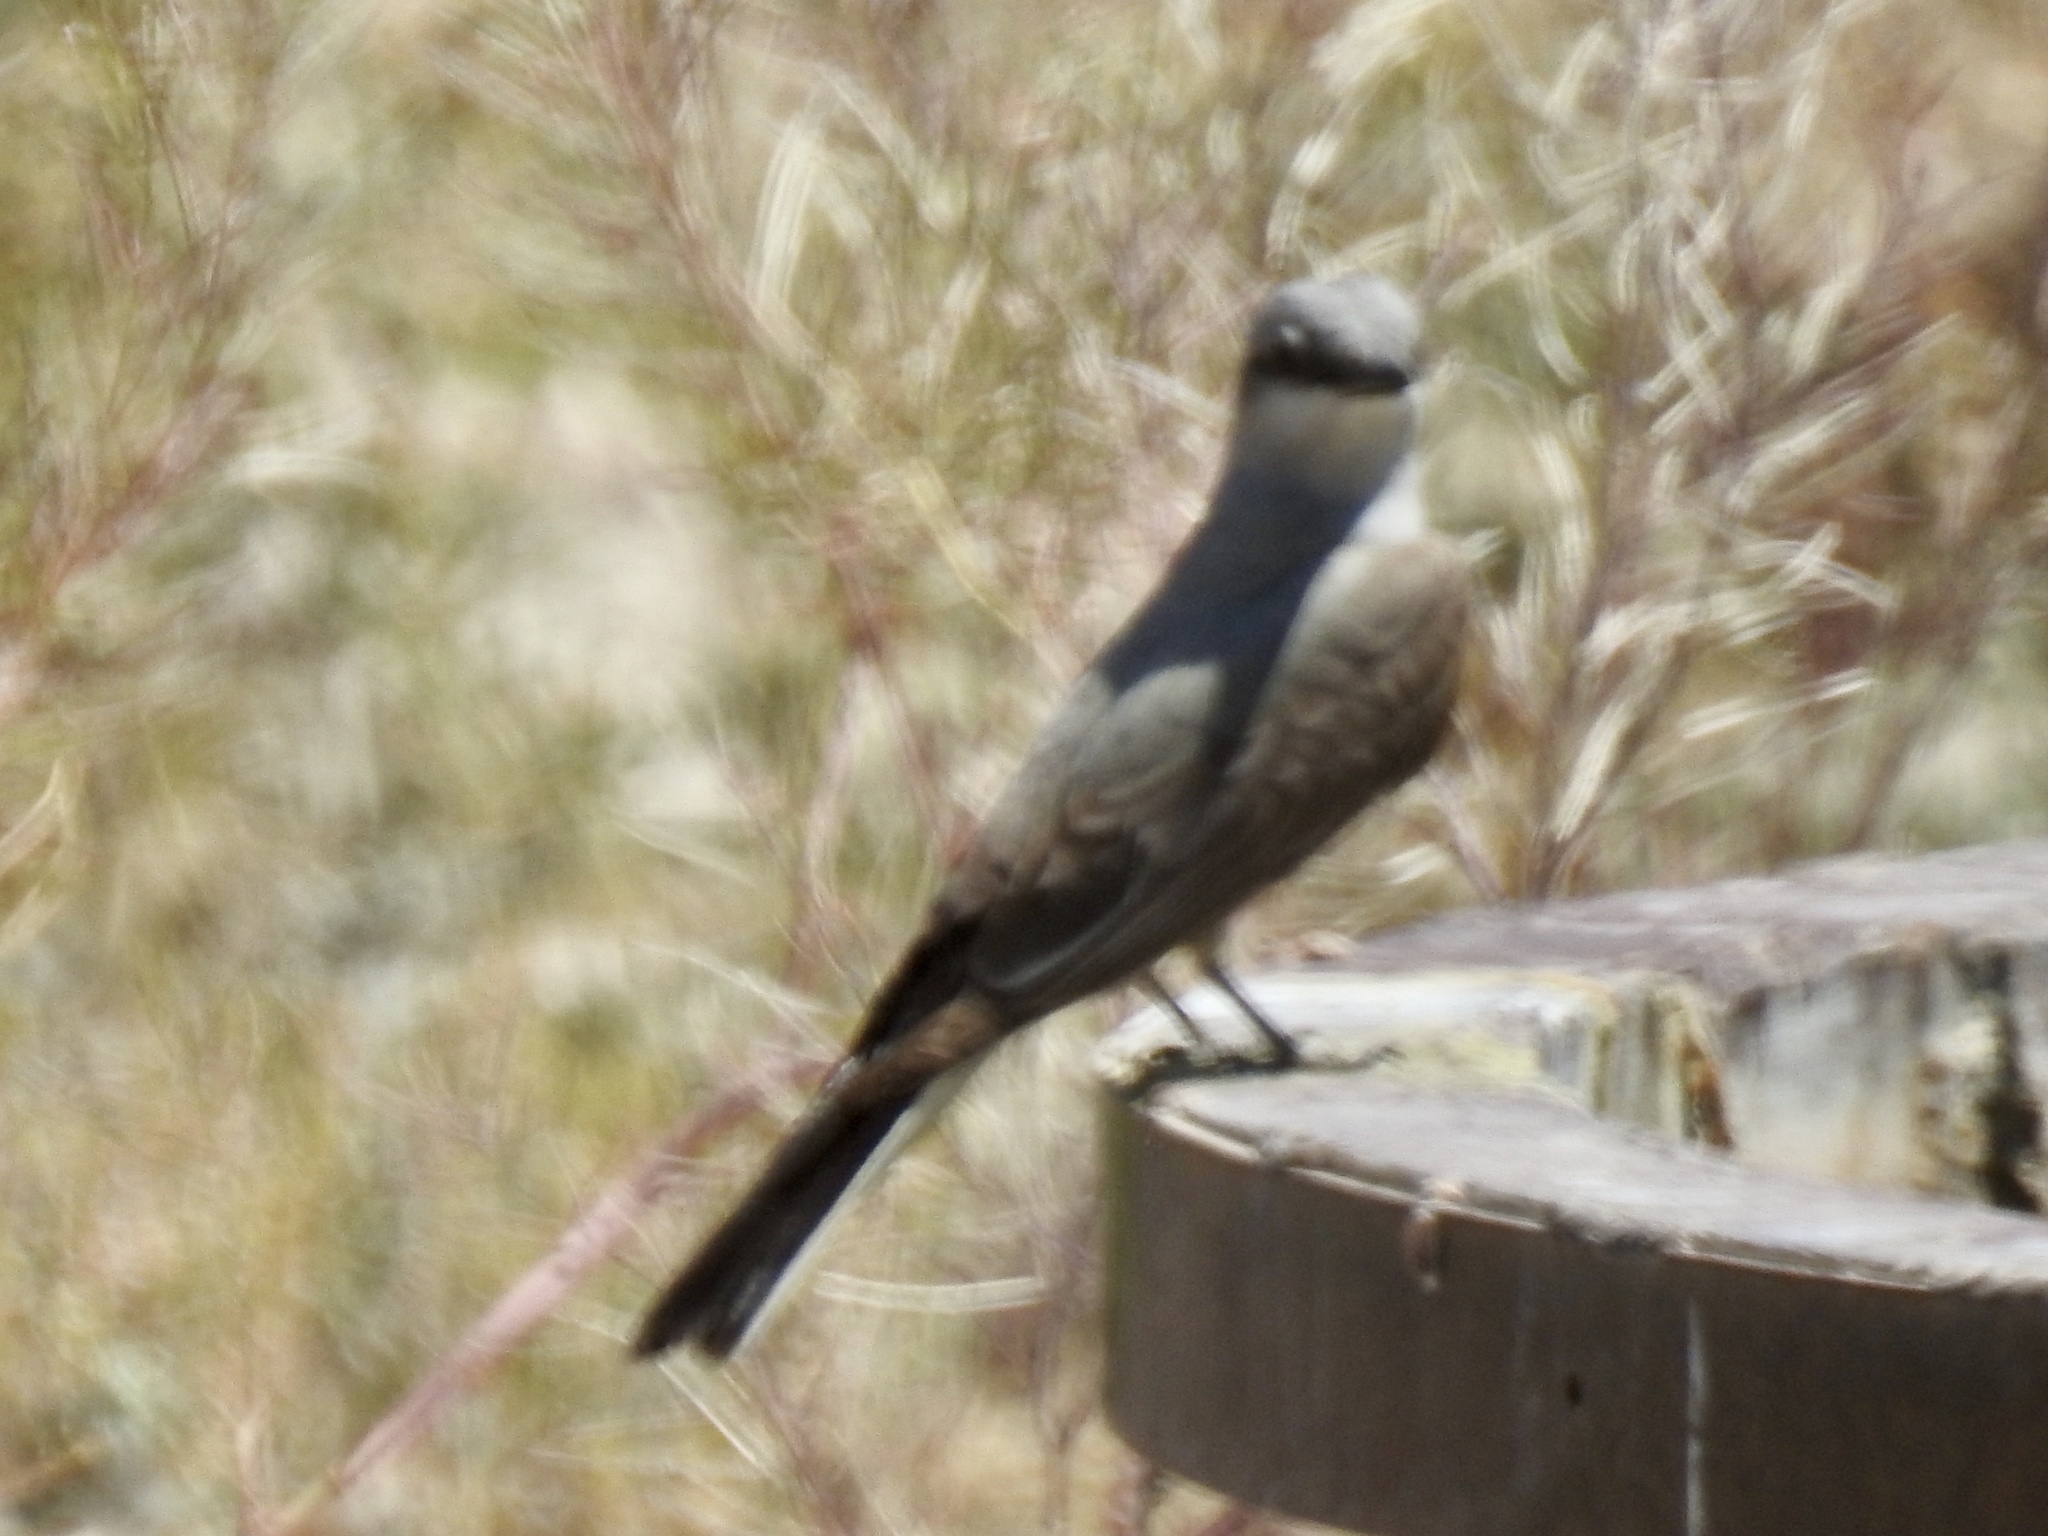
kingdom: Animalia
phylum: Chordata
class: Aves
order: Passeriformes
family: Tyrannidae
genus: Tyrannus
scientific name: Tyrannus verticalis
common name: Western kingbird
